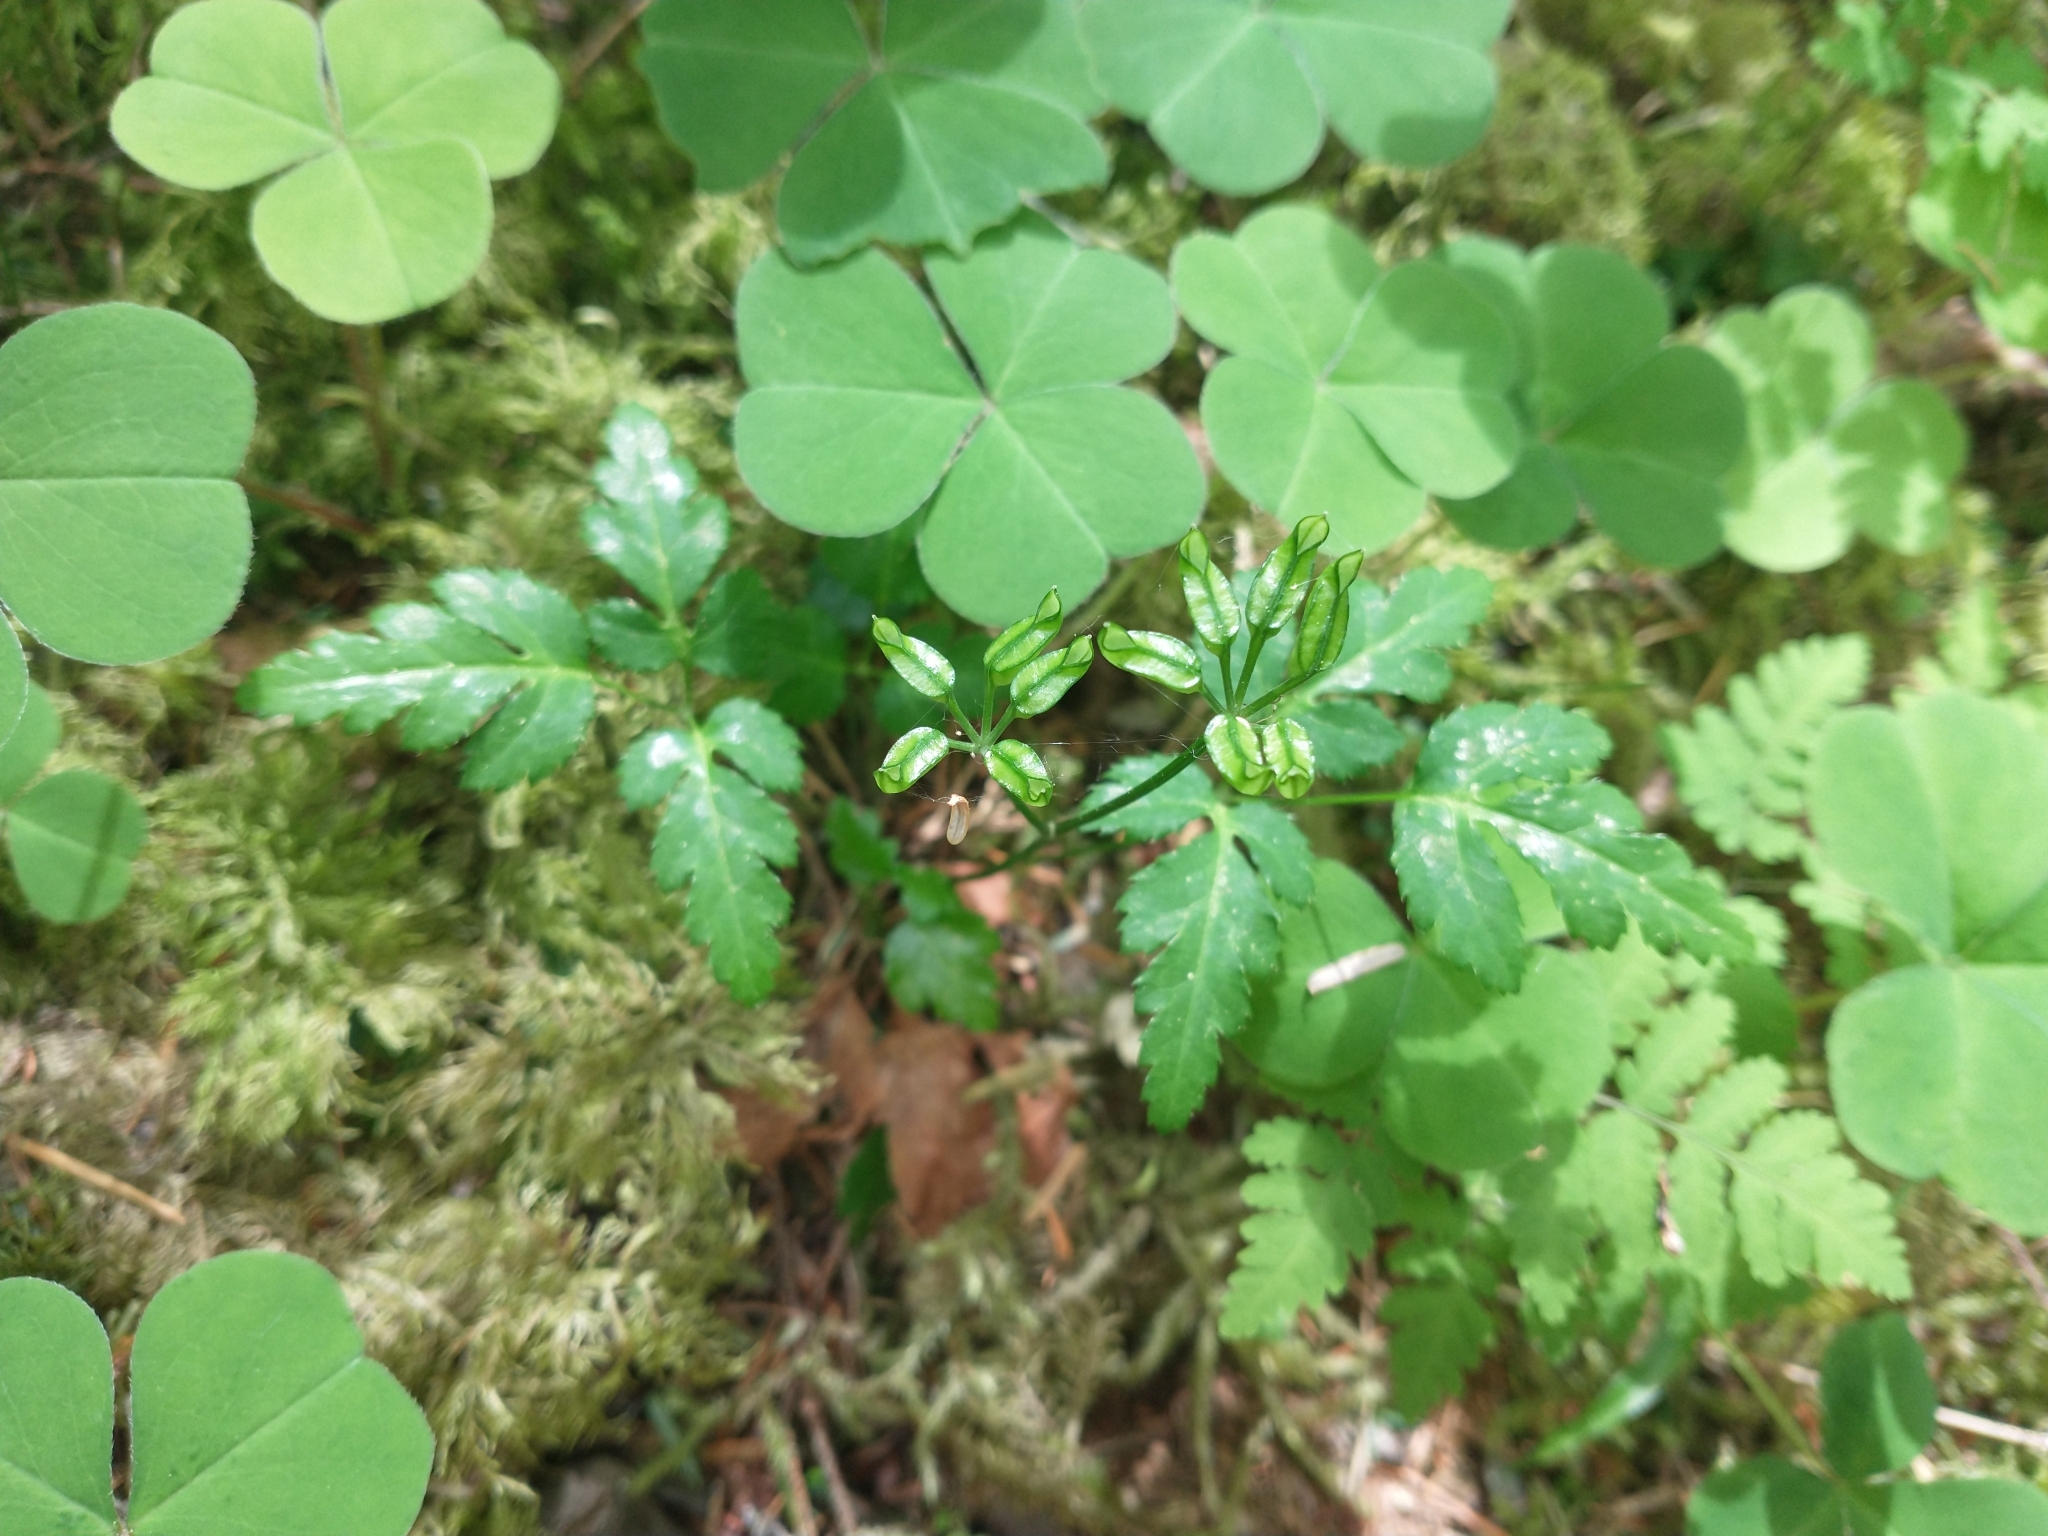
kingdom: Plantae
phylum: Tracheophyta
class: Magnoliopsida
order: Ranunculales
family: Ranunculaceae
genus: Coptis
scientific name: Coptis laciniata
